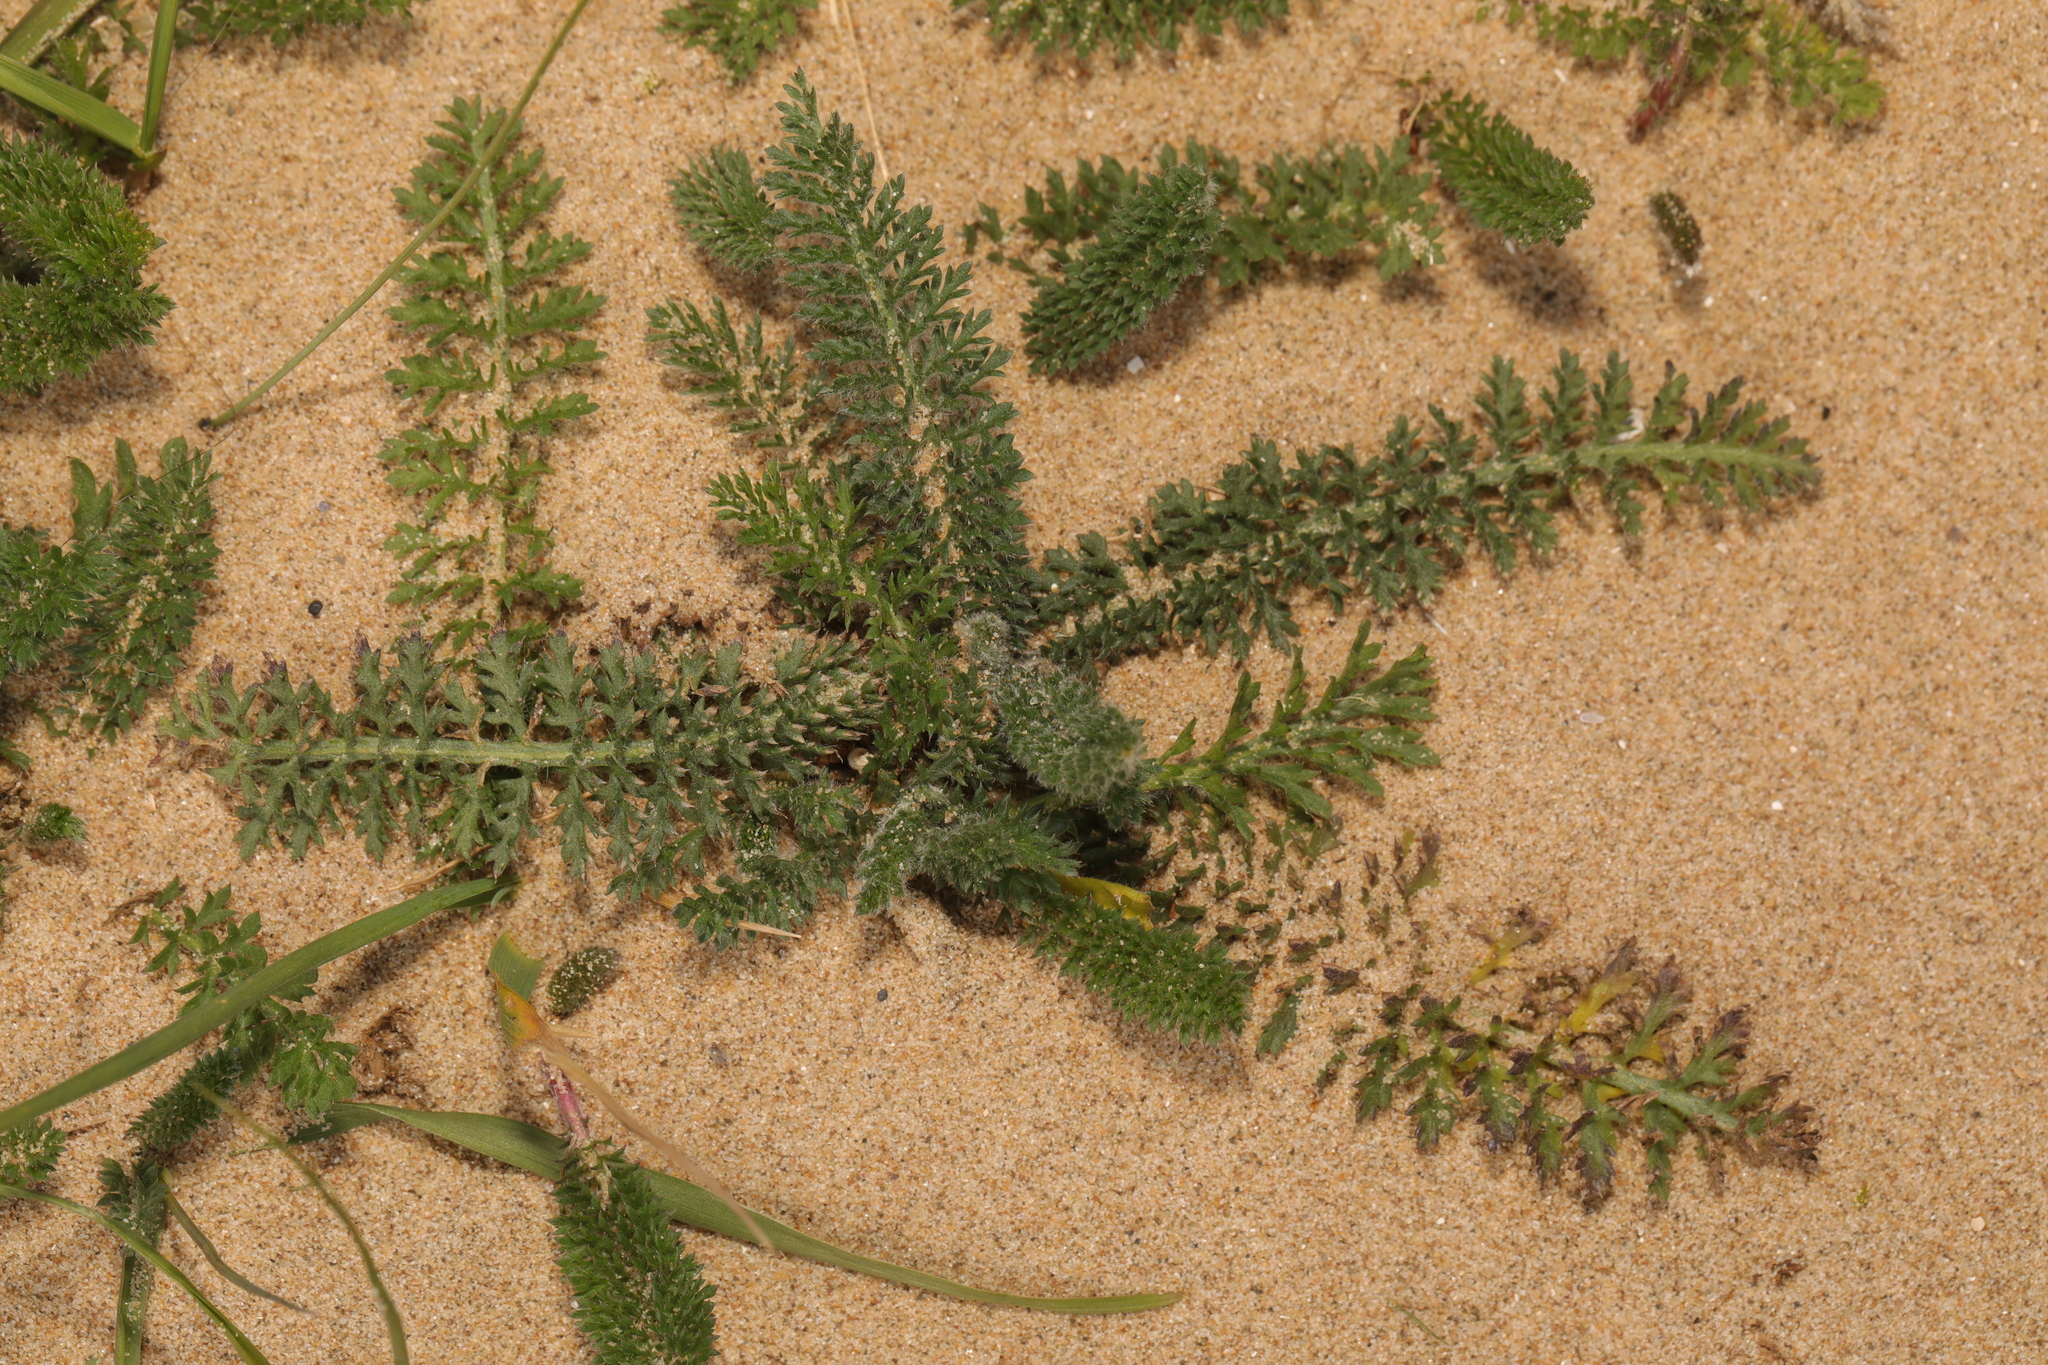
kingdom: Plantae
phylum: Tracheophyta
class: Magnoliopsida
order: Asterales
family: Asteraceae
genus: Achillea
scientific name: Achillea millefolium
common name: Yarrow
